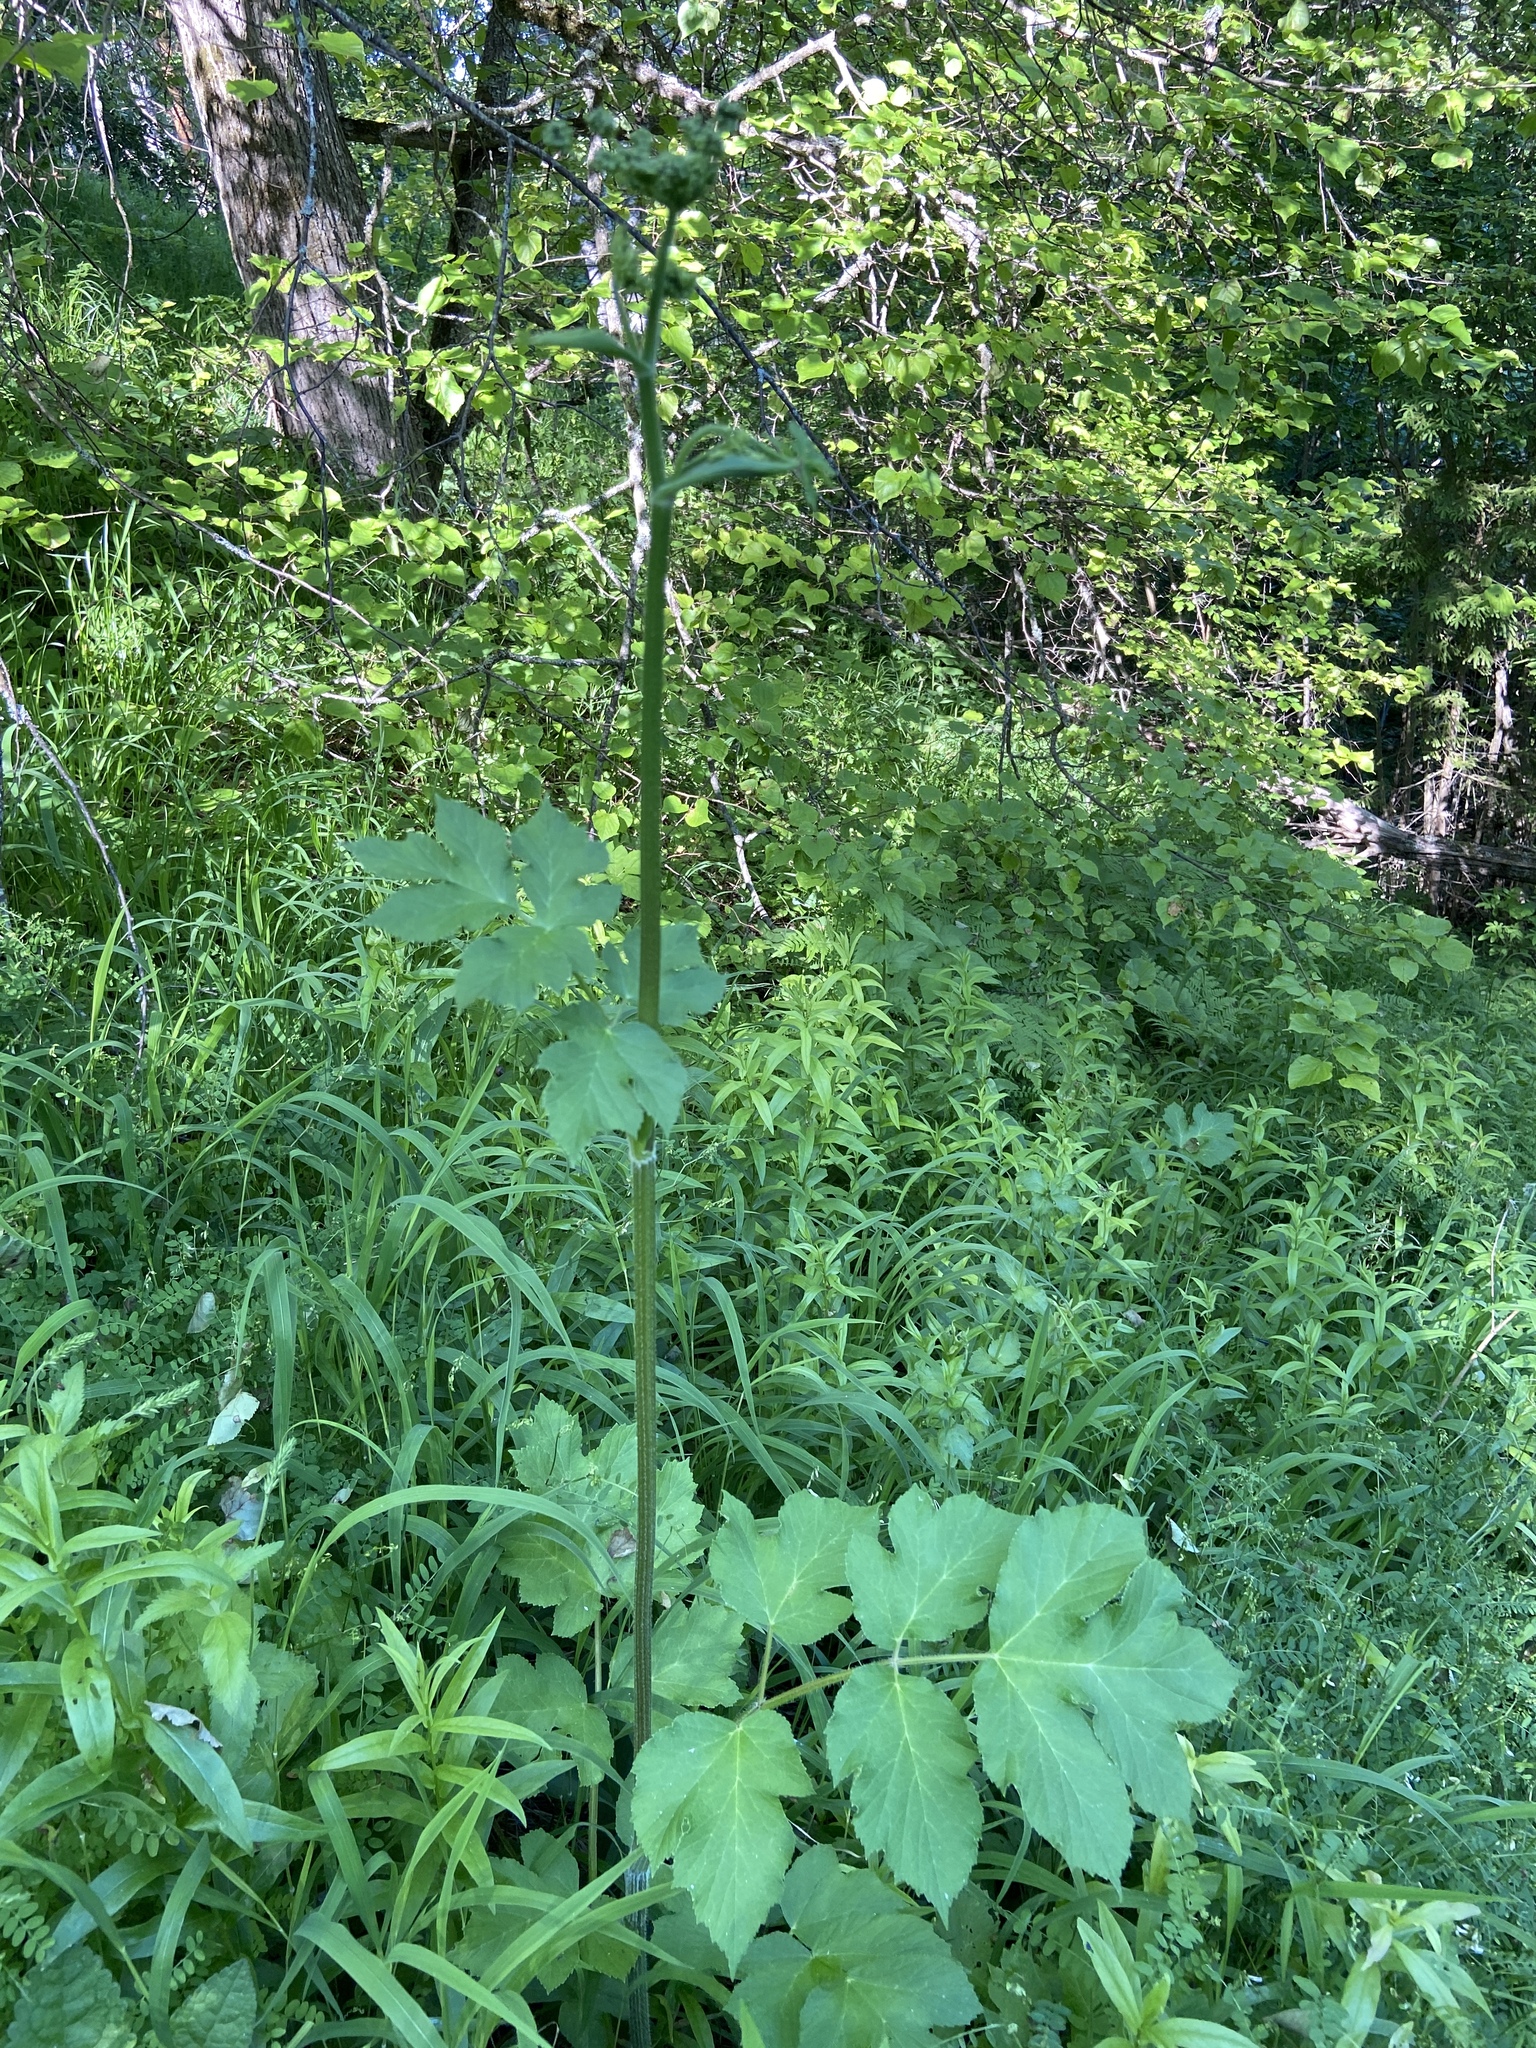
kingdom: Plantae
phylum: Tracheophyta
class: Magnoliopsida
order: Apiales
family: Apiaceae
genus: Heracleum
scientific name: Heracleum sphondylium
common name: Hogweed
